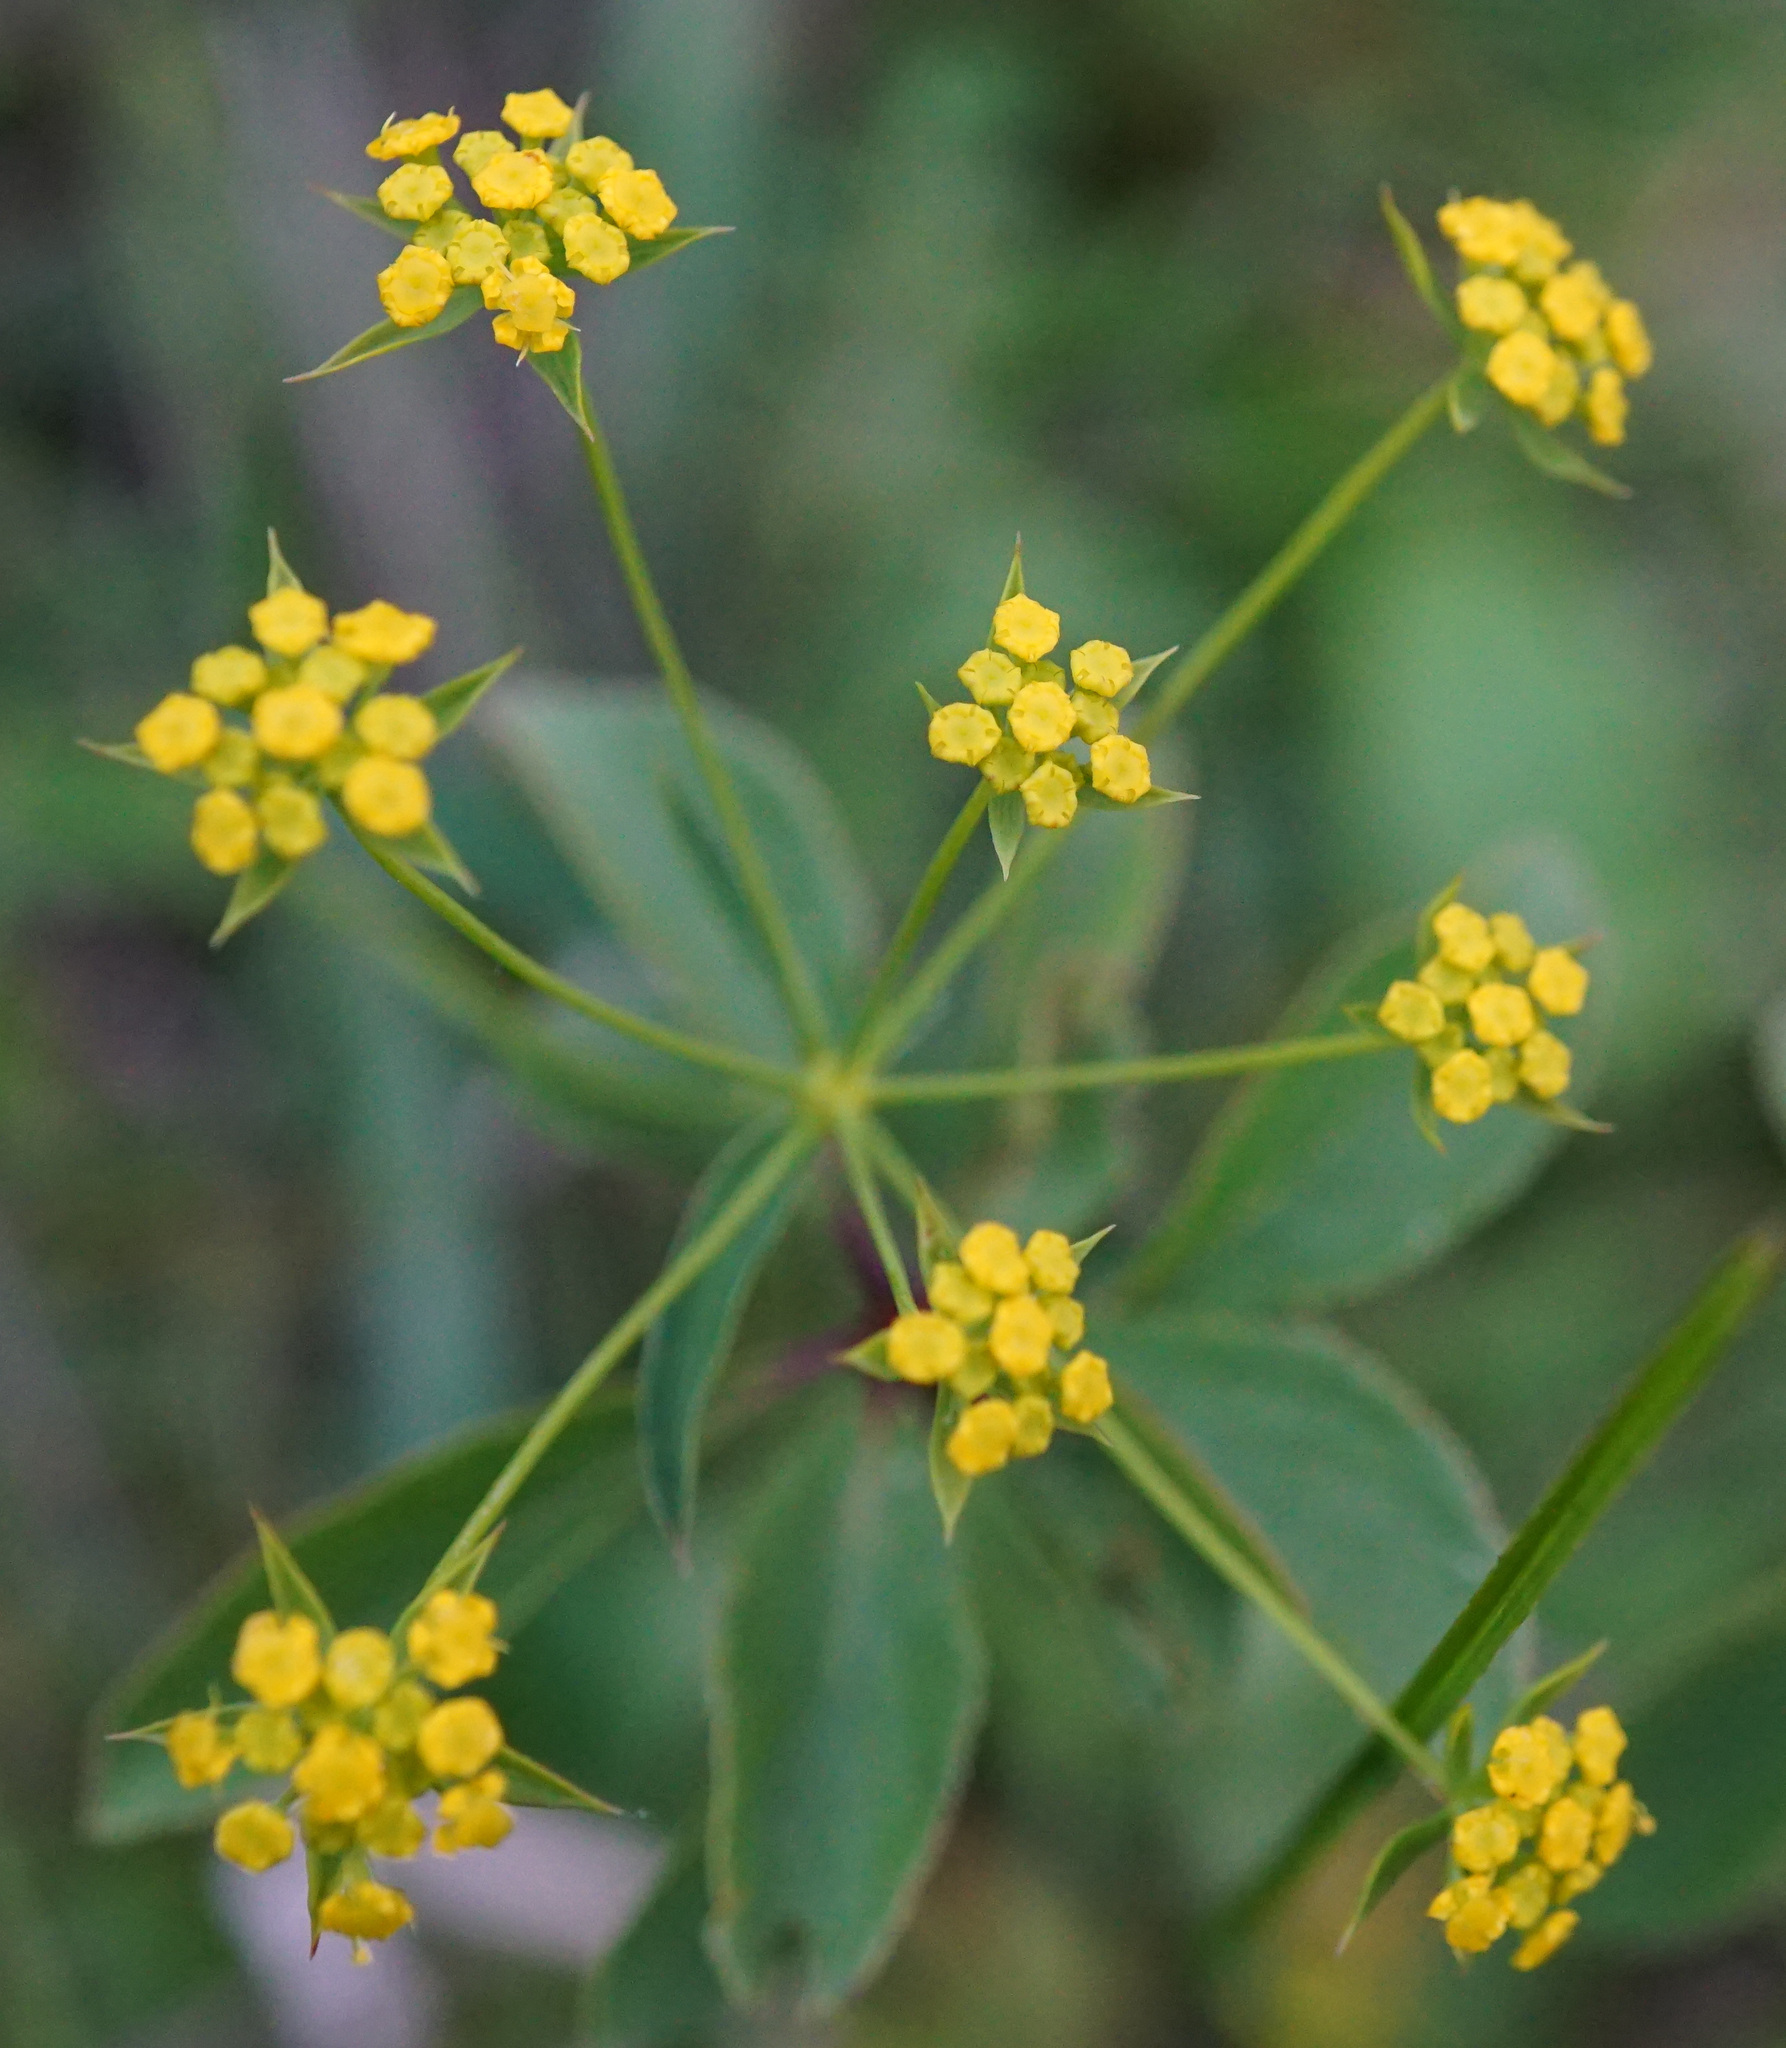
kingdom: Plantae
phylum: Tracheophyta
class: Magnoliopsida
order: Apiales
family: Apiaceae
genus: Bupleurum
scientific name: Bupleurum falcatum
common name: Sickle-leaved hare's-ear
